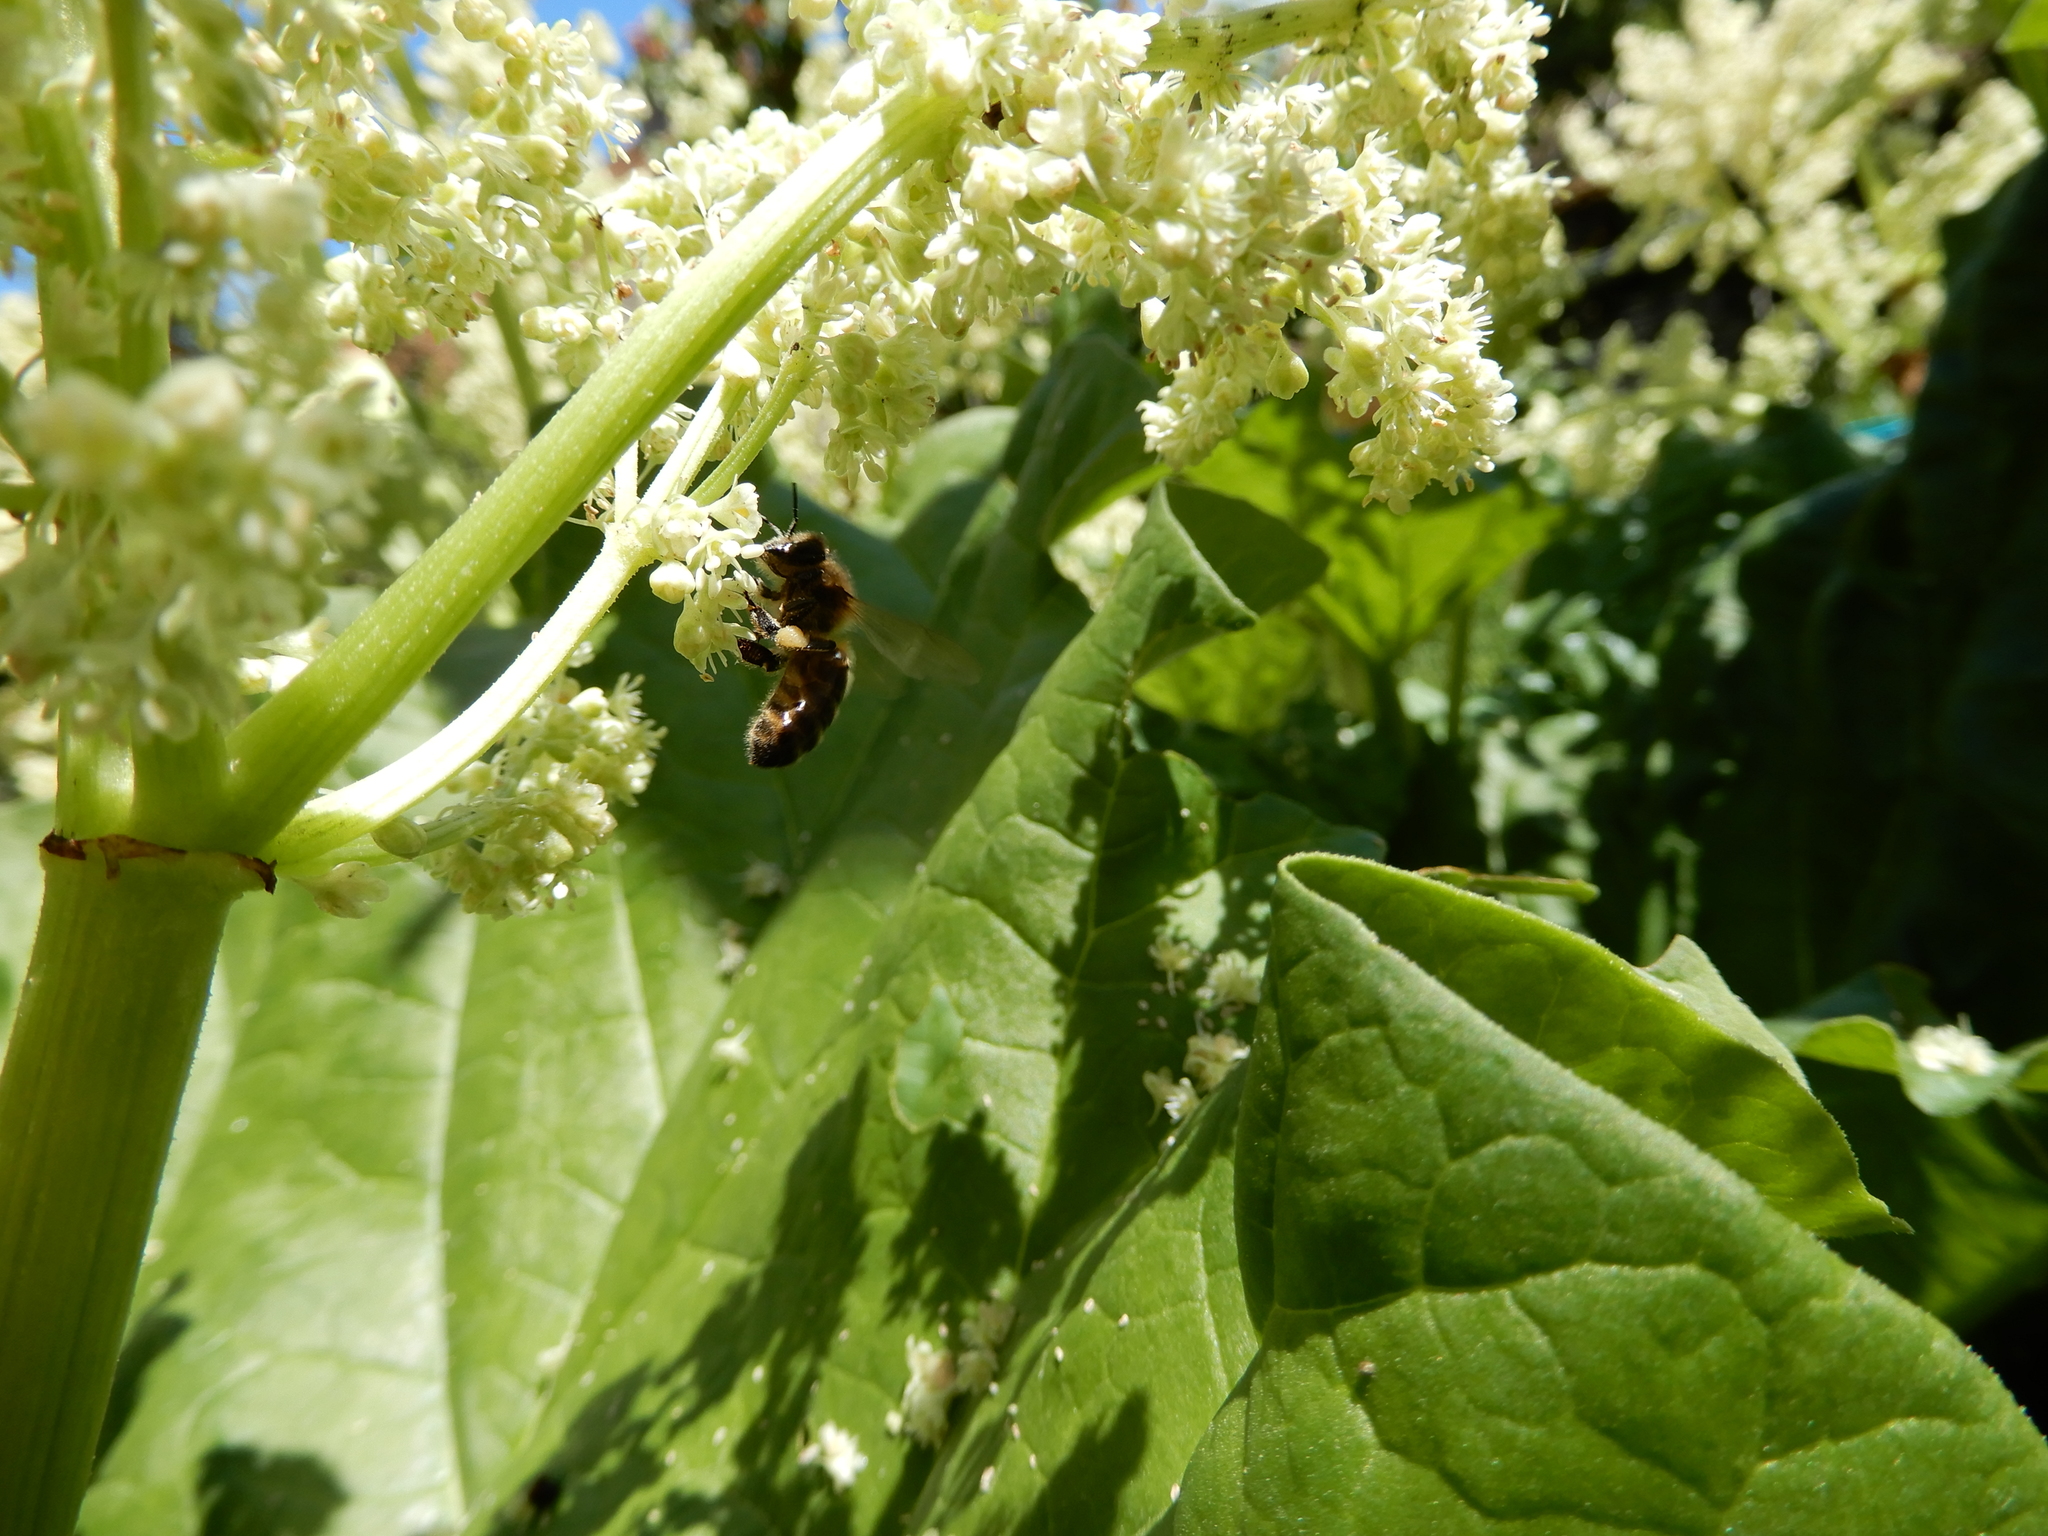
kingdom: Animalia
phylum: Arthropoda
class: Insecta
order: Hymenoptera
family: Apidae
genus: Apis
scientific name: Apis mellifera
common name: Honey bee
